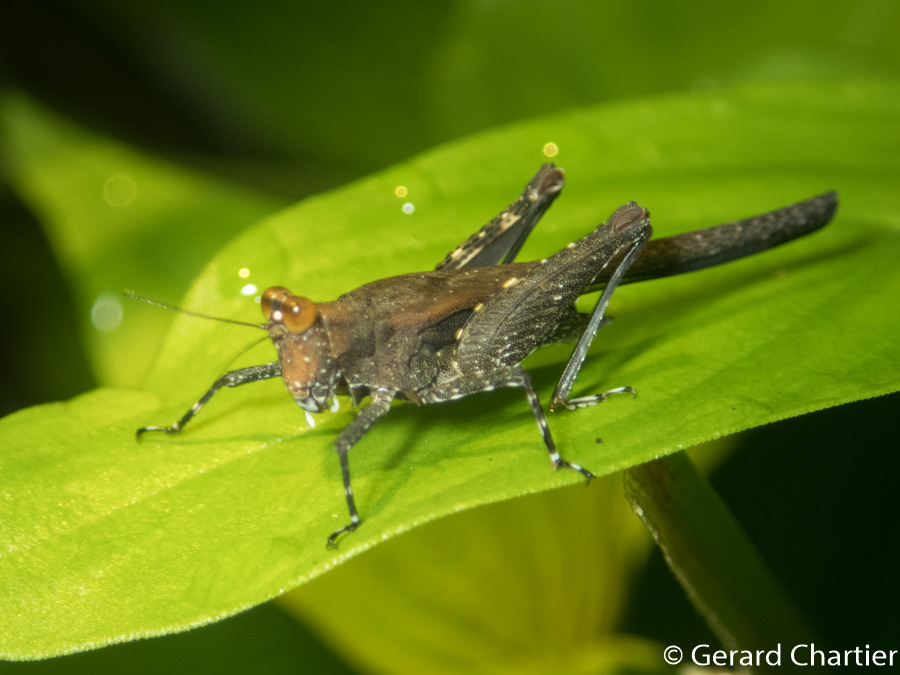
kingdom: Animalia
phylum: Arthropoda
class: Insecta
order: Orthoptera
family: Tetrigidae
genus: Criotettix
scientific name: Criotettix bispinosus
